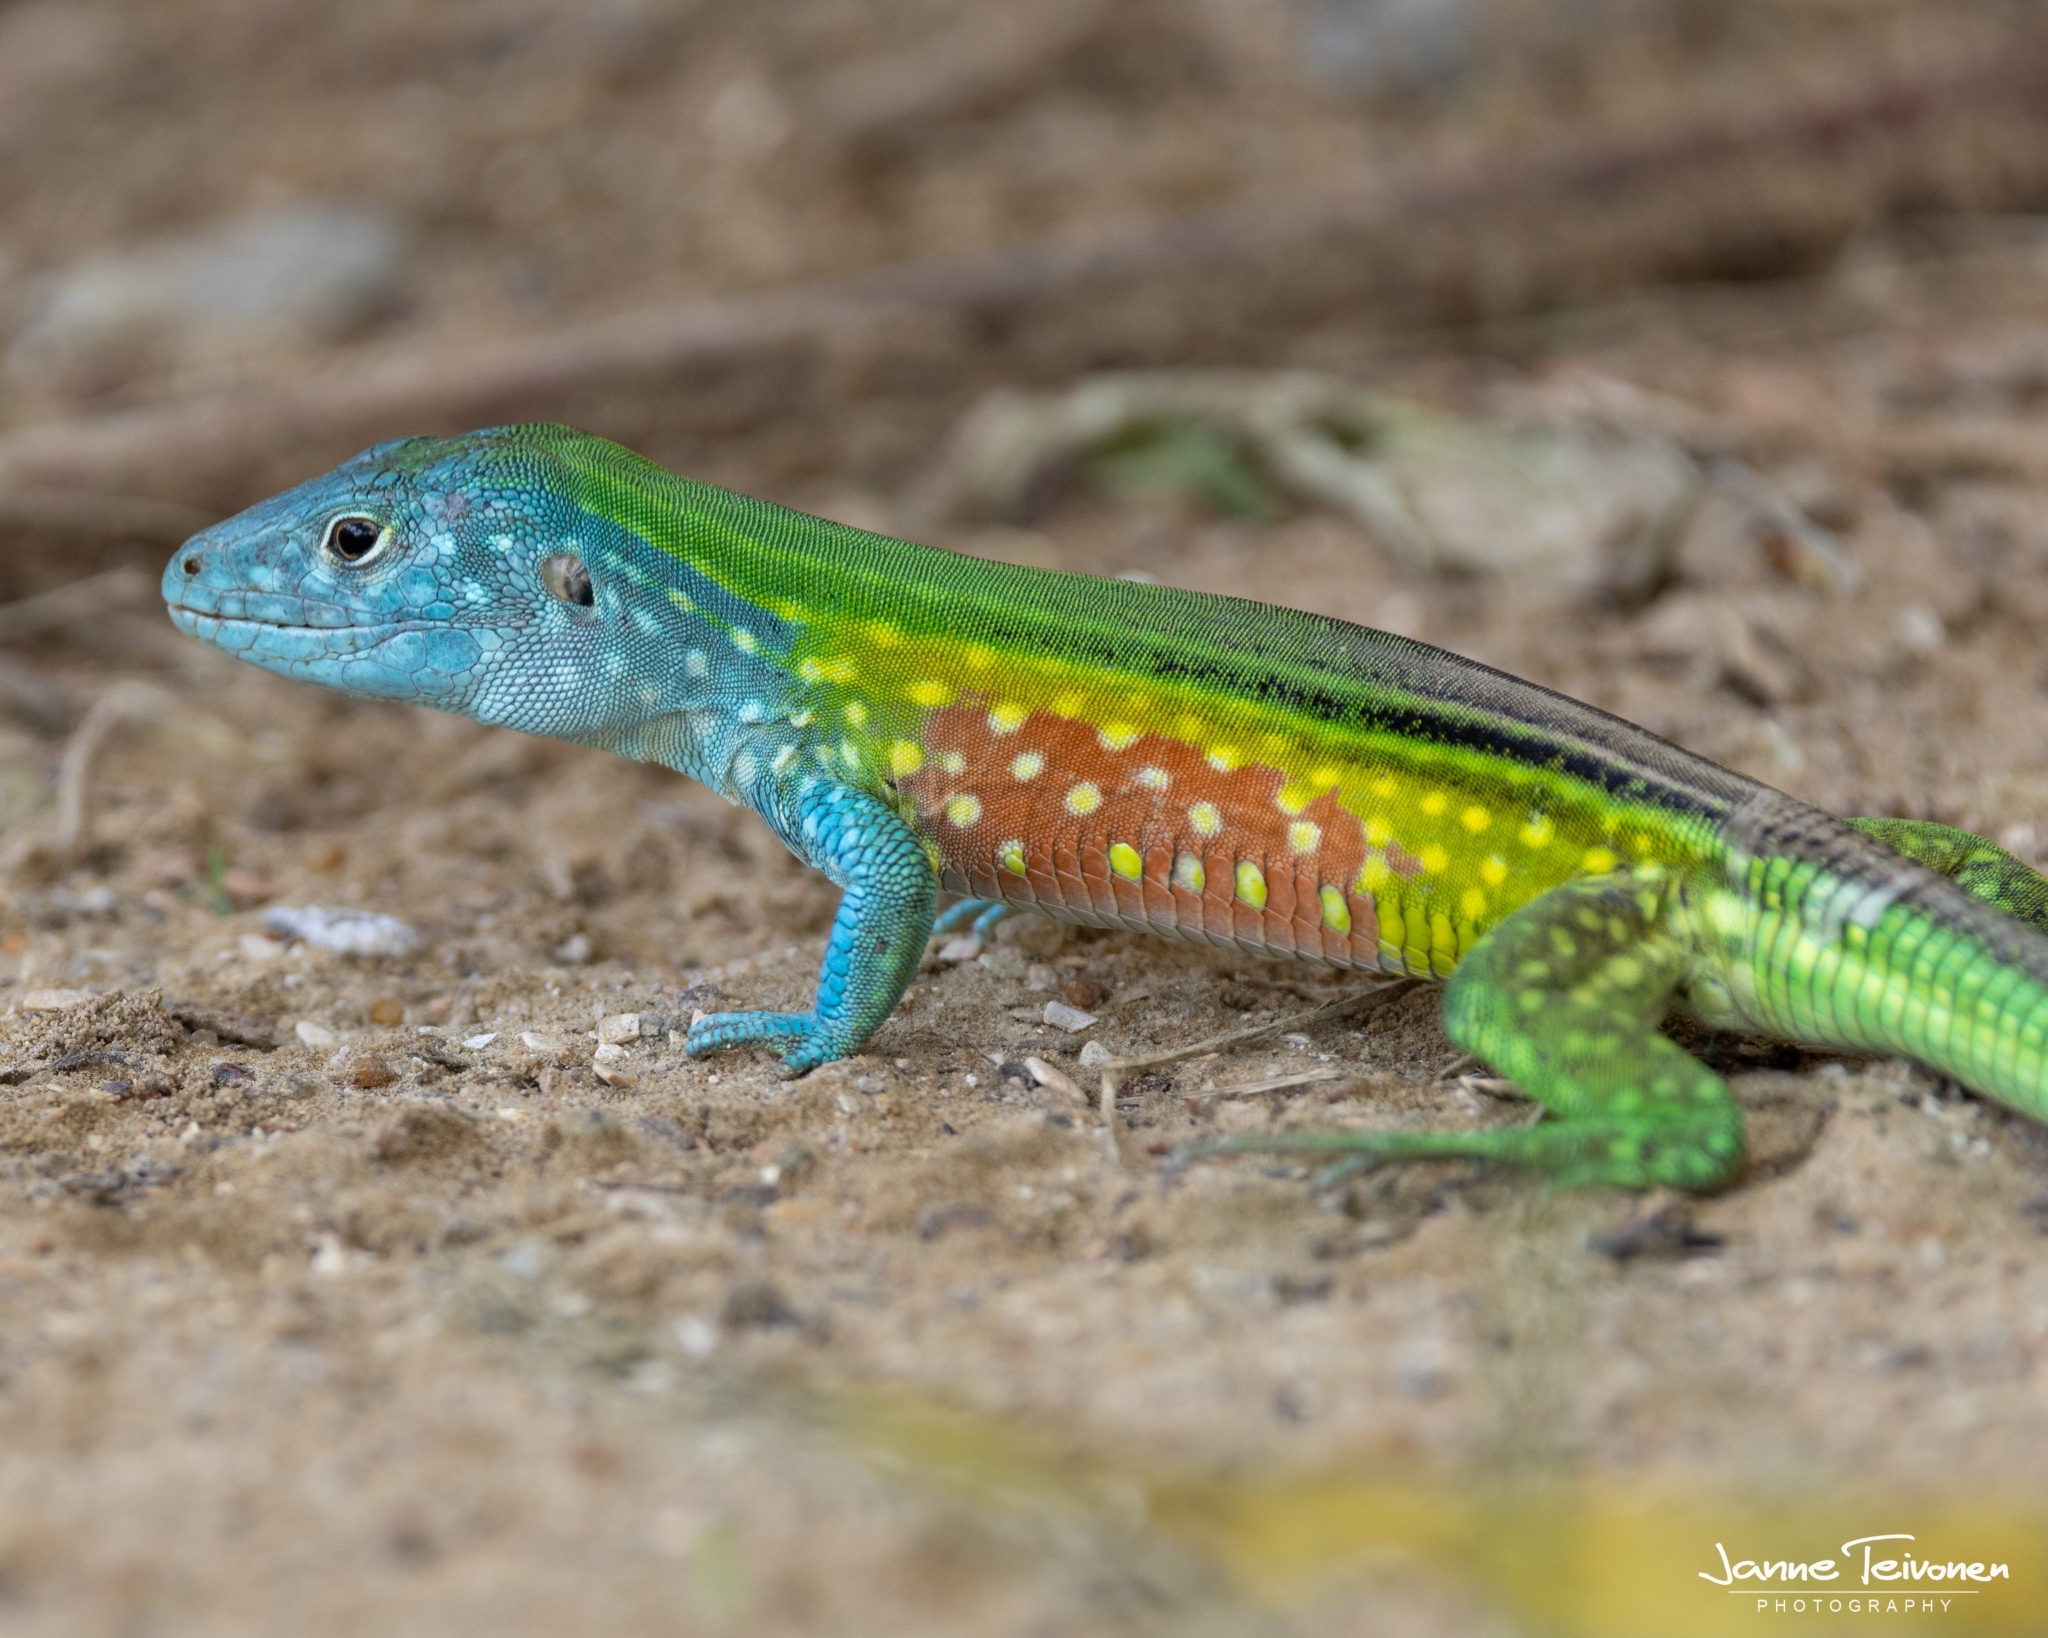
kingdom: Animalia
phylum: Chordata
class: Squamata
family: Teiidae
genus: Cnemidophorus
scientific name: Cnemidophorus lemniscatus
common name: Rainbow whiptail
